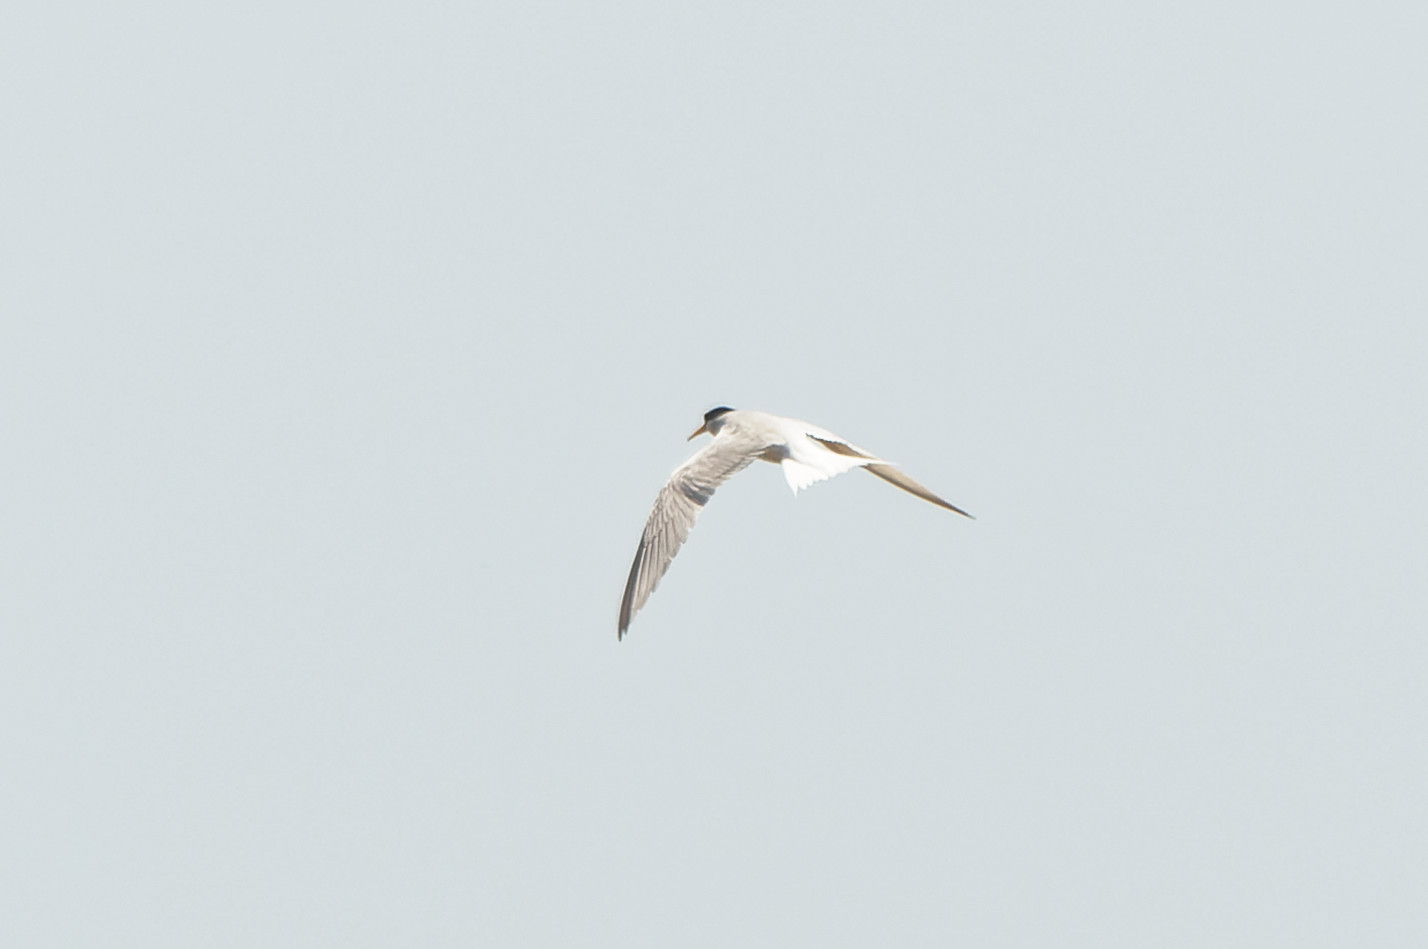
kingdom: Animalia
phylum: Chordata
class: Aves
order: Charadriiformes
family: Laridae
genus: Sternula
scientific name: Sternula albifrons
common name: Little tern
